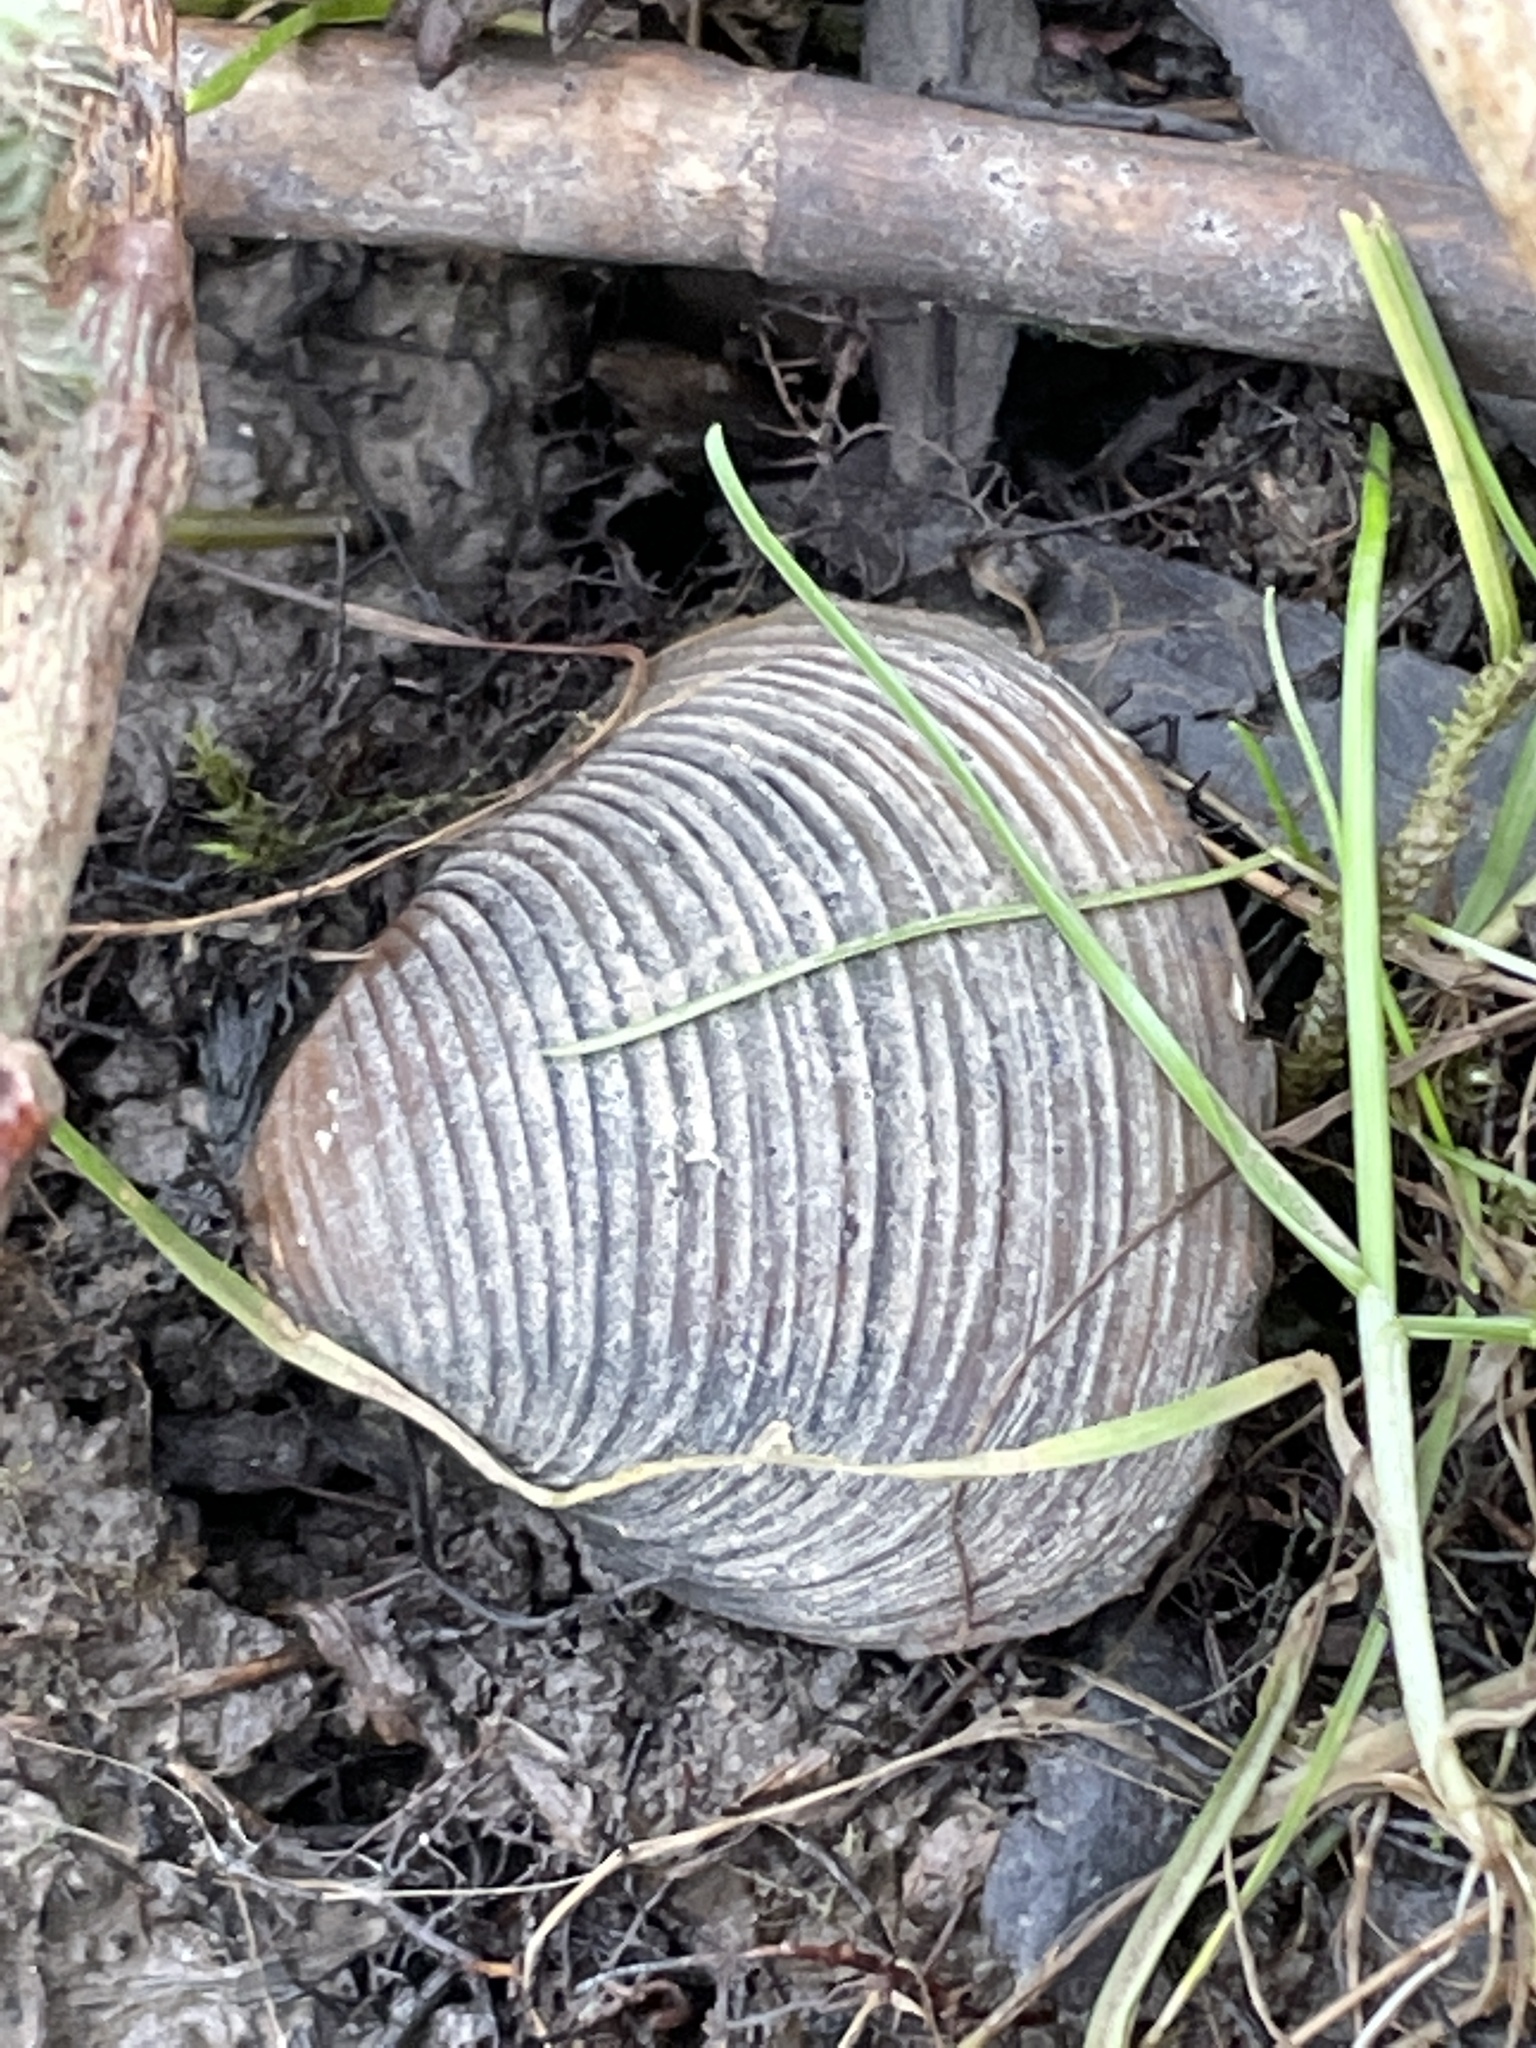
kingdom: Animalia
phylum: Mollusca
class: Bivalvia
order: Venerida
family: Cyrenidae
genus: Corbicula
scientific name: Corbicula fluminea
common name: Asian clam
